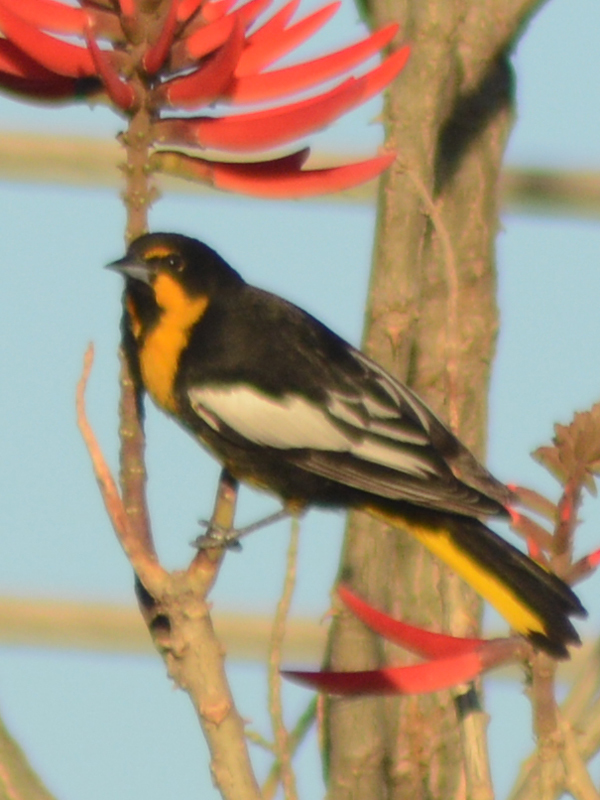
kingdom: Animalia
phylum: Chordata
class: Aves
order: Passeriformes
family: Icteridae
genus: Icterus
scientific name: Icterus abeillei
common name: Black-backed oriole
